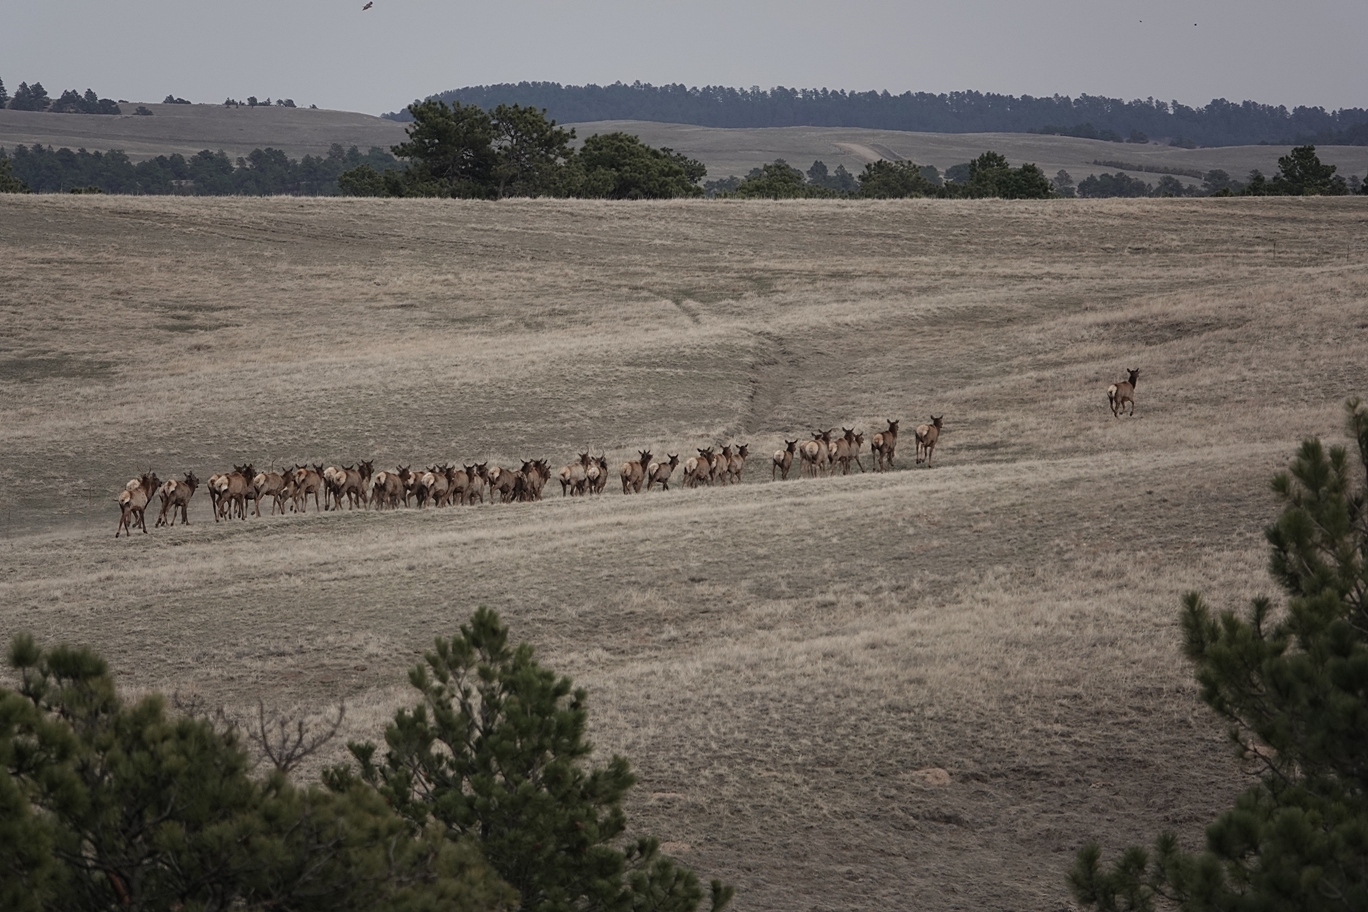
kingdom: Animalia
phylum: Chordata
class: Mammalia
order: Artiodactyla
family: Cervidae
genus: Cervus
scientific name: Cervus elaphus
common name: Red deer
